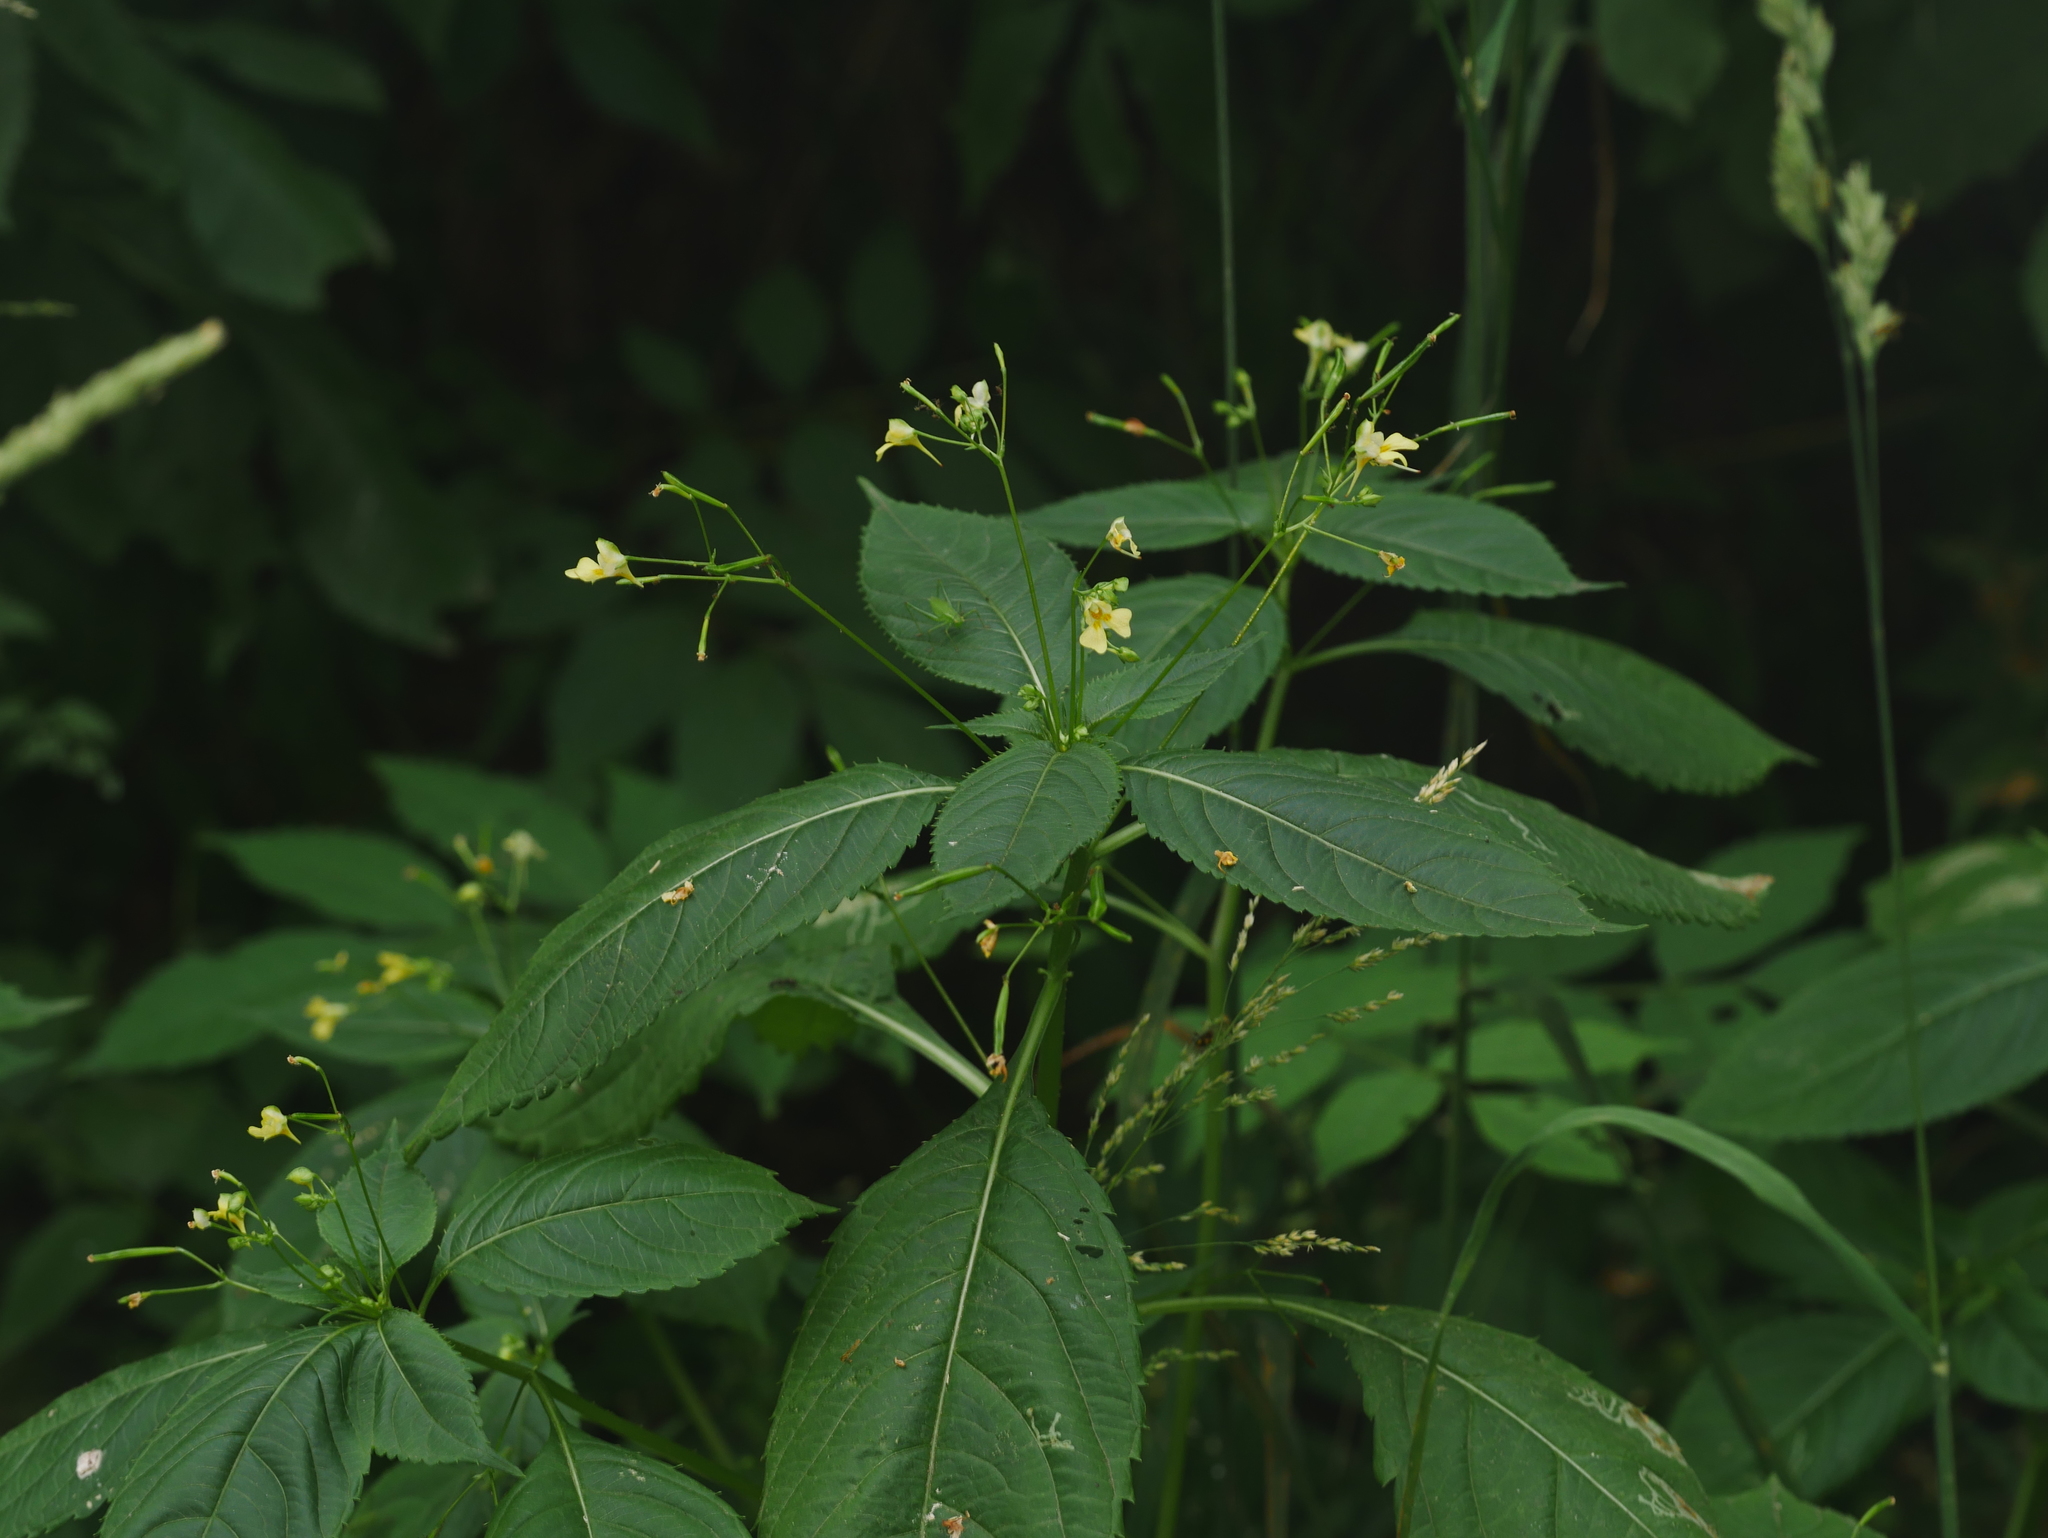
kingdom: Plantae
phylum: Tracheophyta
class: Magnoliopsida
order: Ericales
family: Balsaminaceae
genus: Impatiens
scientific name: Impatiens parviflora
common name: Small balsam
